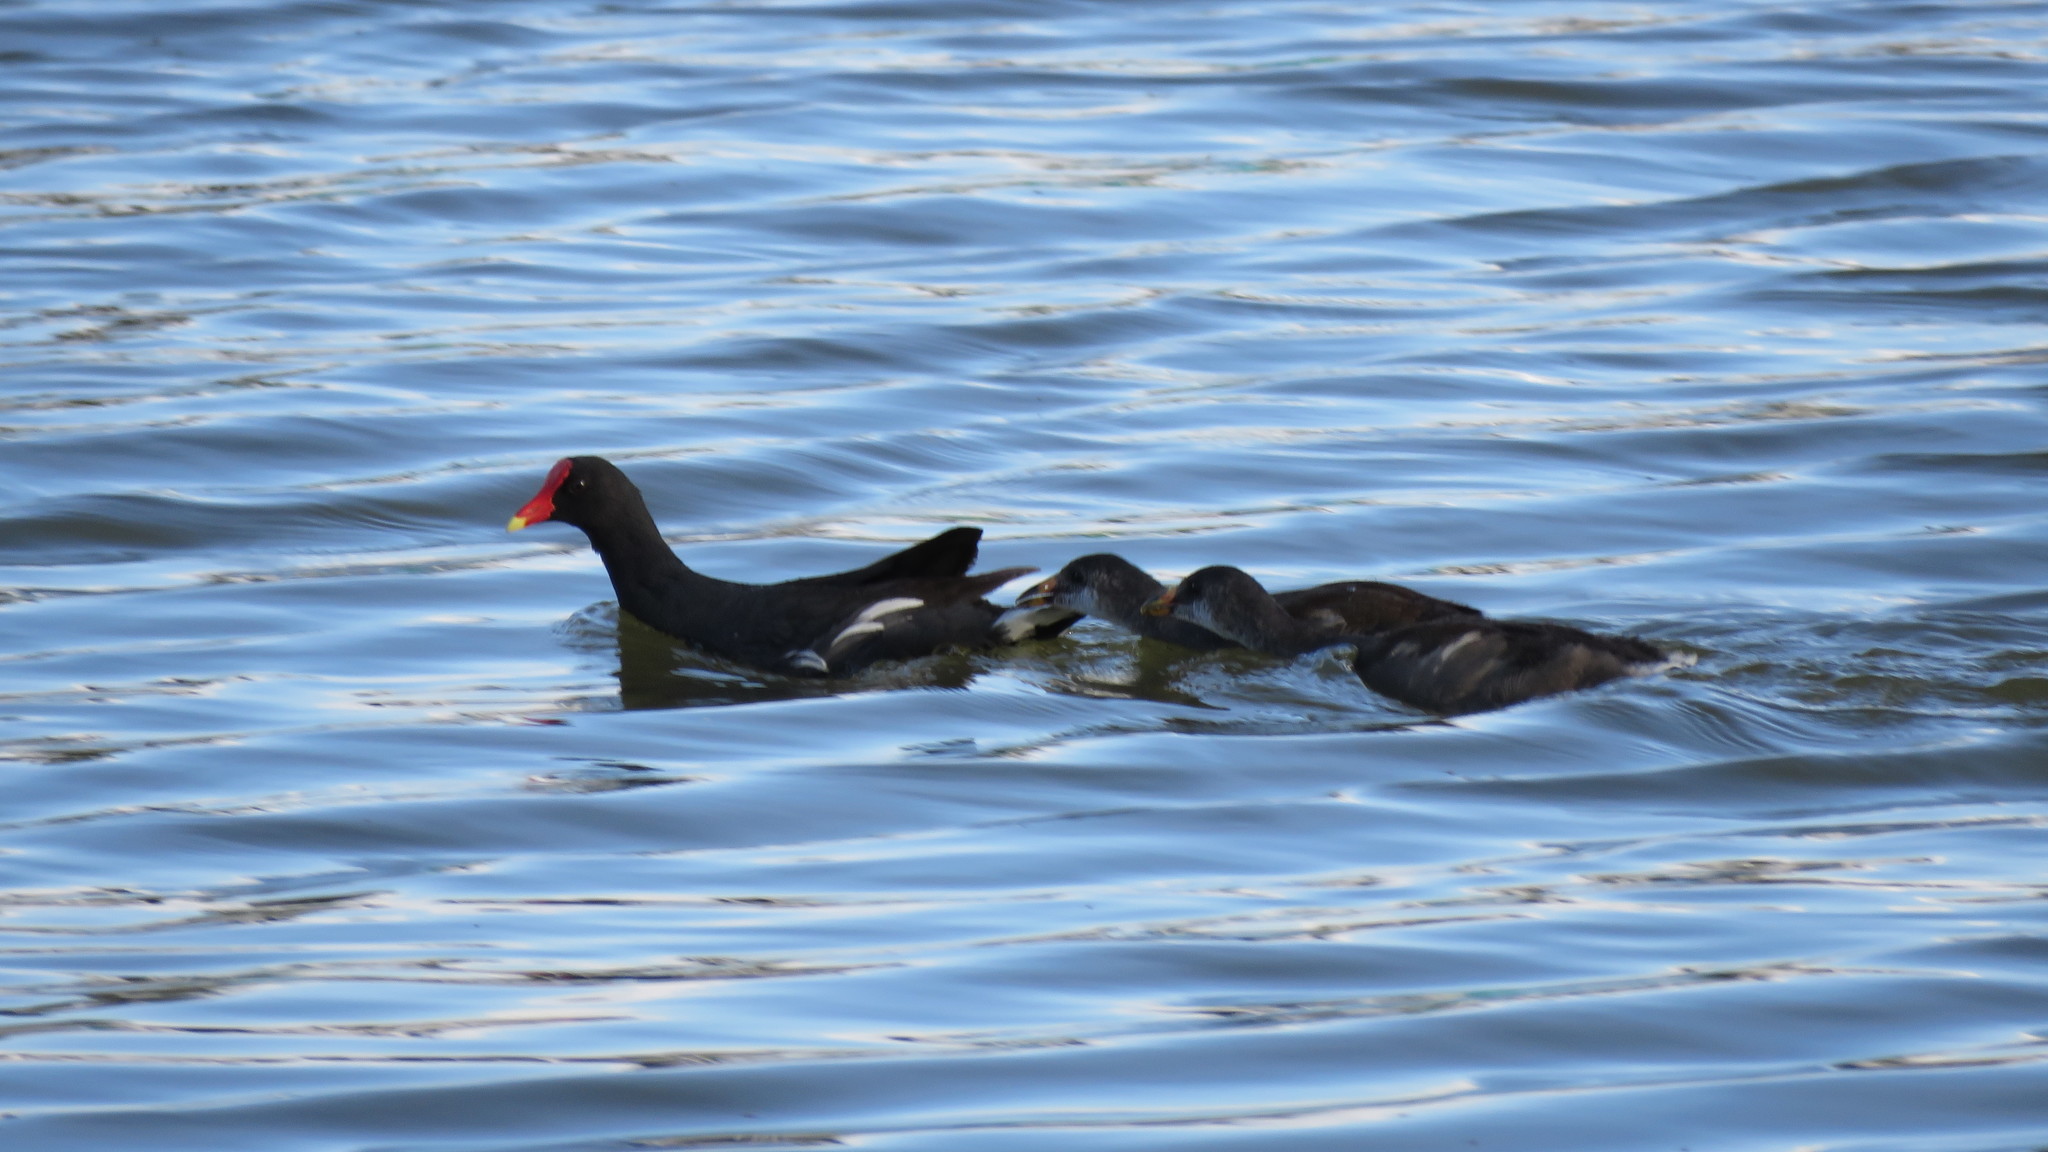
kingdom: Animalia
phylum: Chordata
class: Aves
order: Gruiformes
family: Rallidae
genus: Gallinula
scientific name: Gallinula chloropus
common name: Common moorhen
